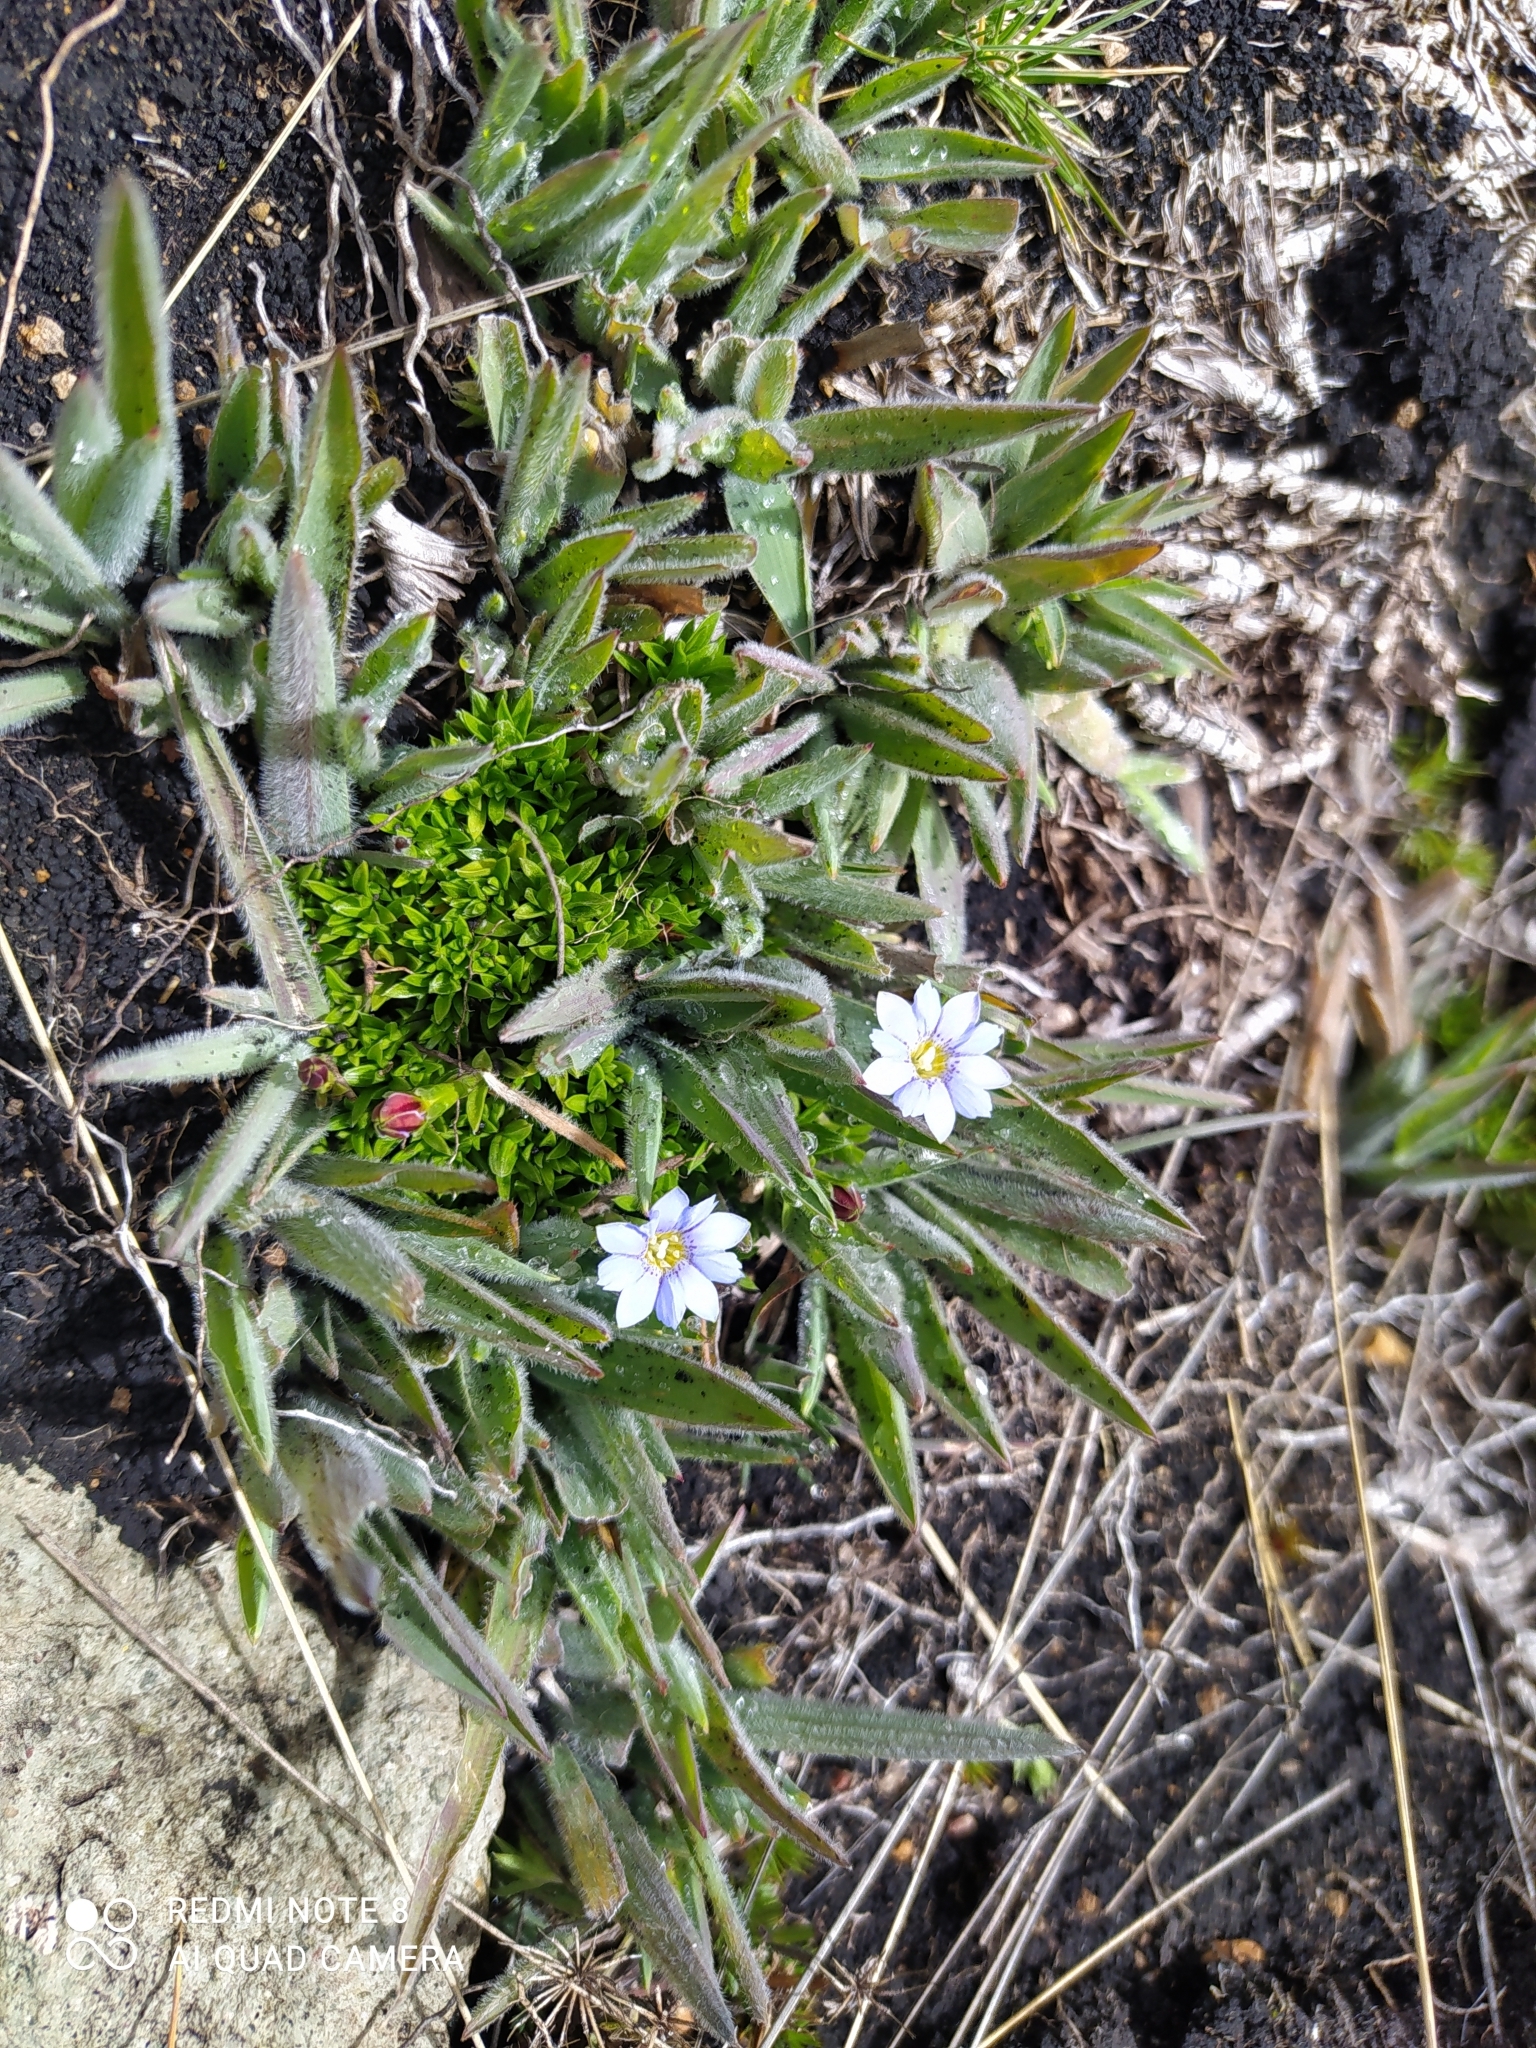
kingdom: Plantae
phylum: Tracheophyta
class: Magnoliopsida
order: Gentianales
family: Gentianaceae
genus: Gentiana
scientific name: Gentiana sedifolia
